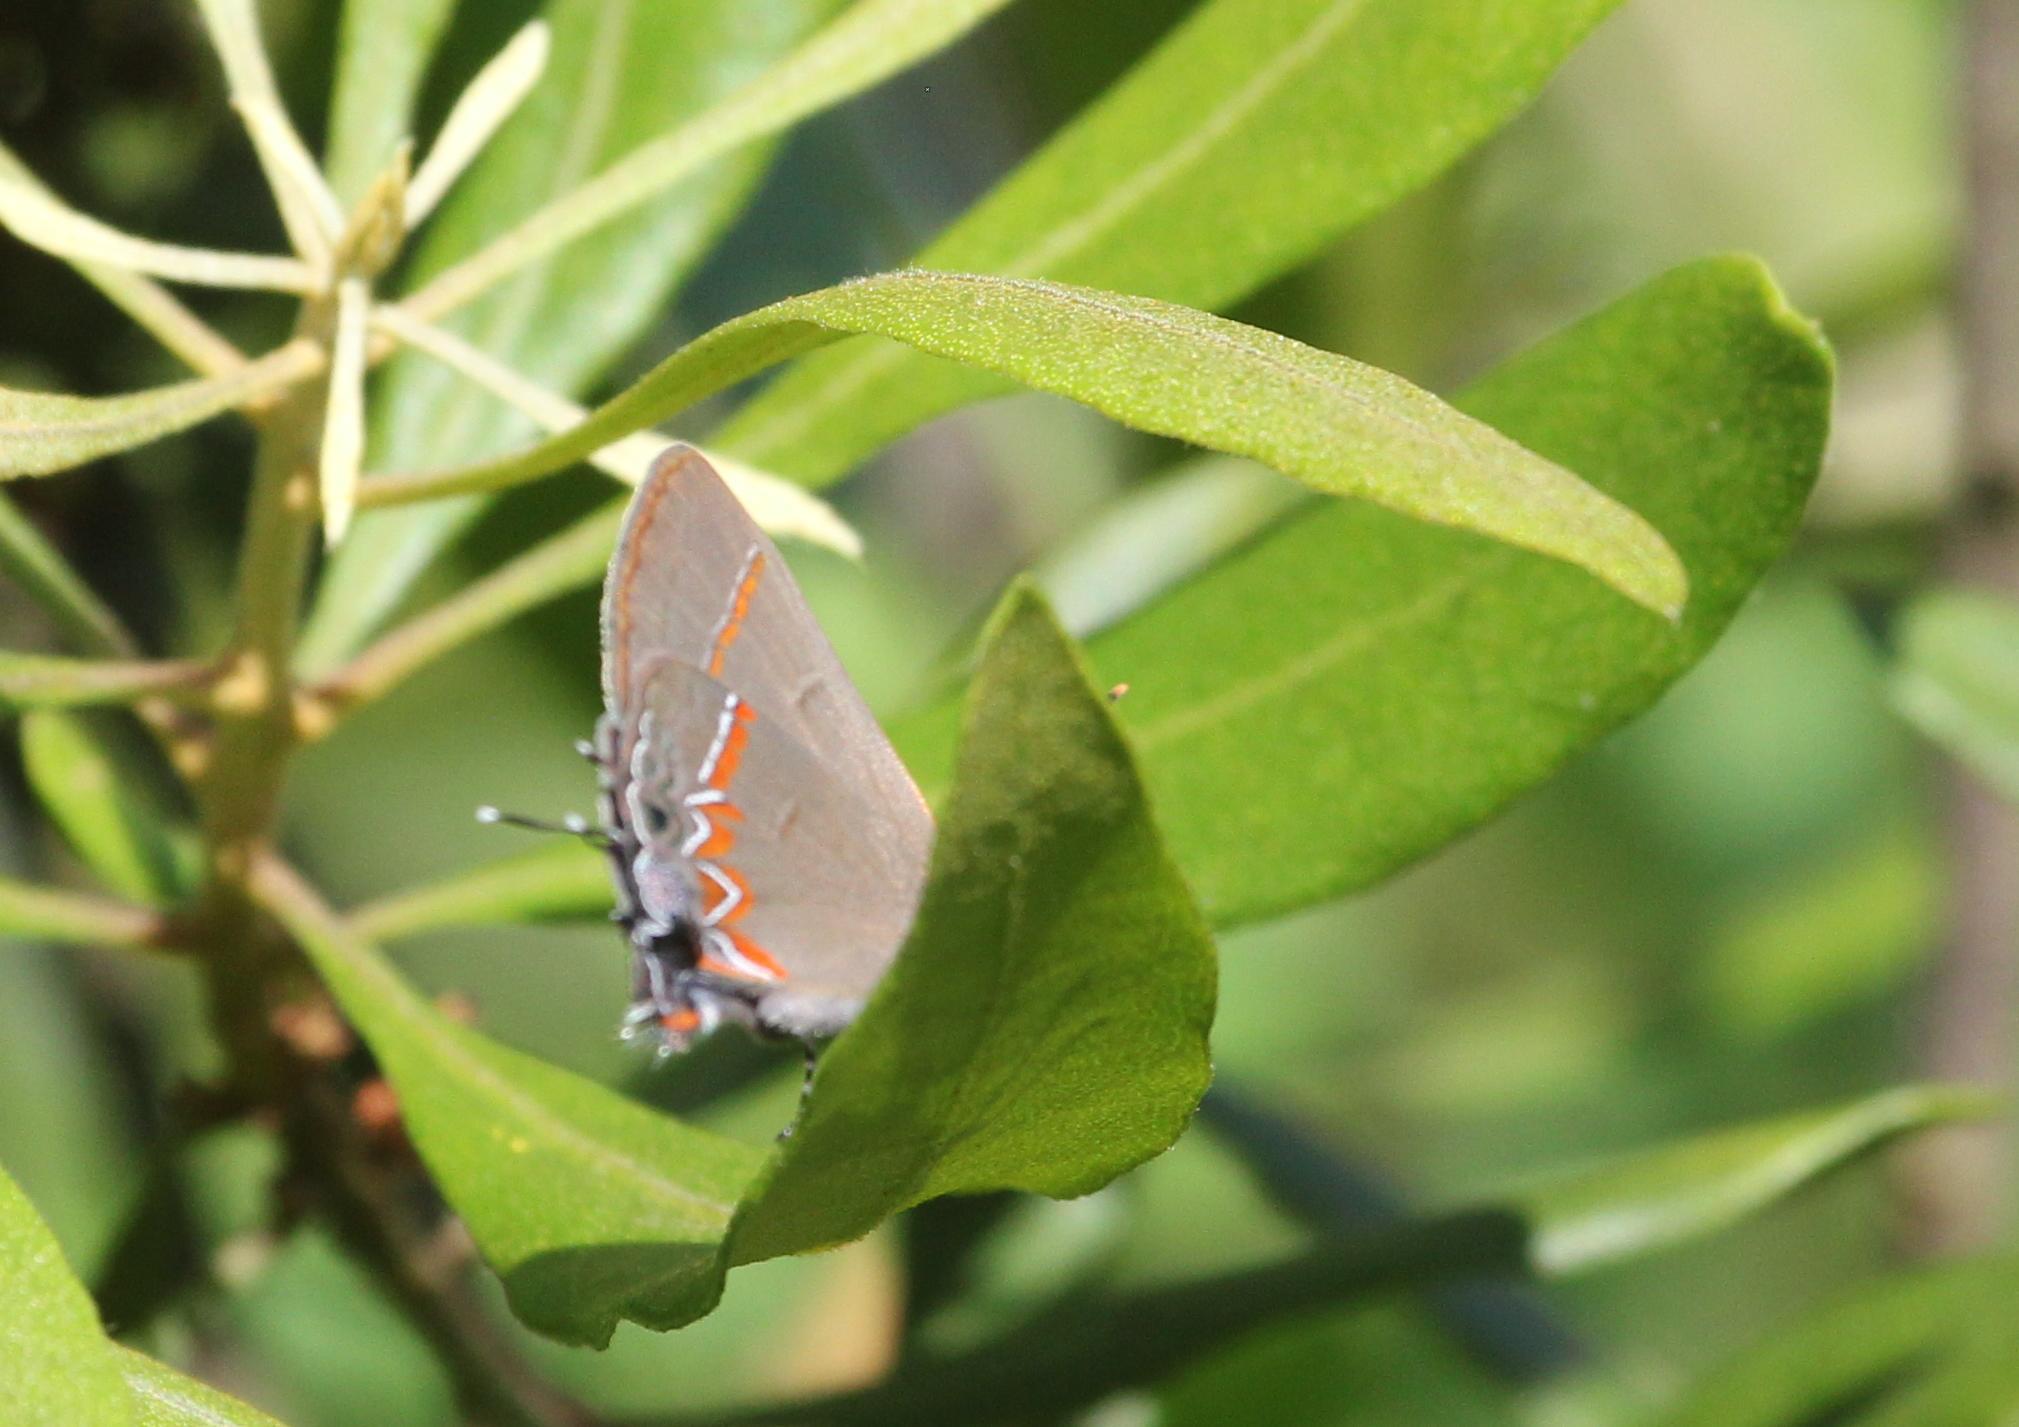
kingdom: Animalia
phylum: Arthropoda
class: Insecta
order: Lepidoptera
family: Lycaenidae
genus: Calycopis
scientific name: Calycopis cecrops
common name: Red-banded hairstreak
